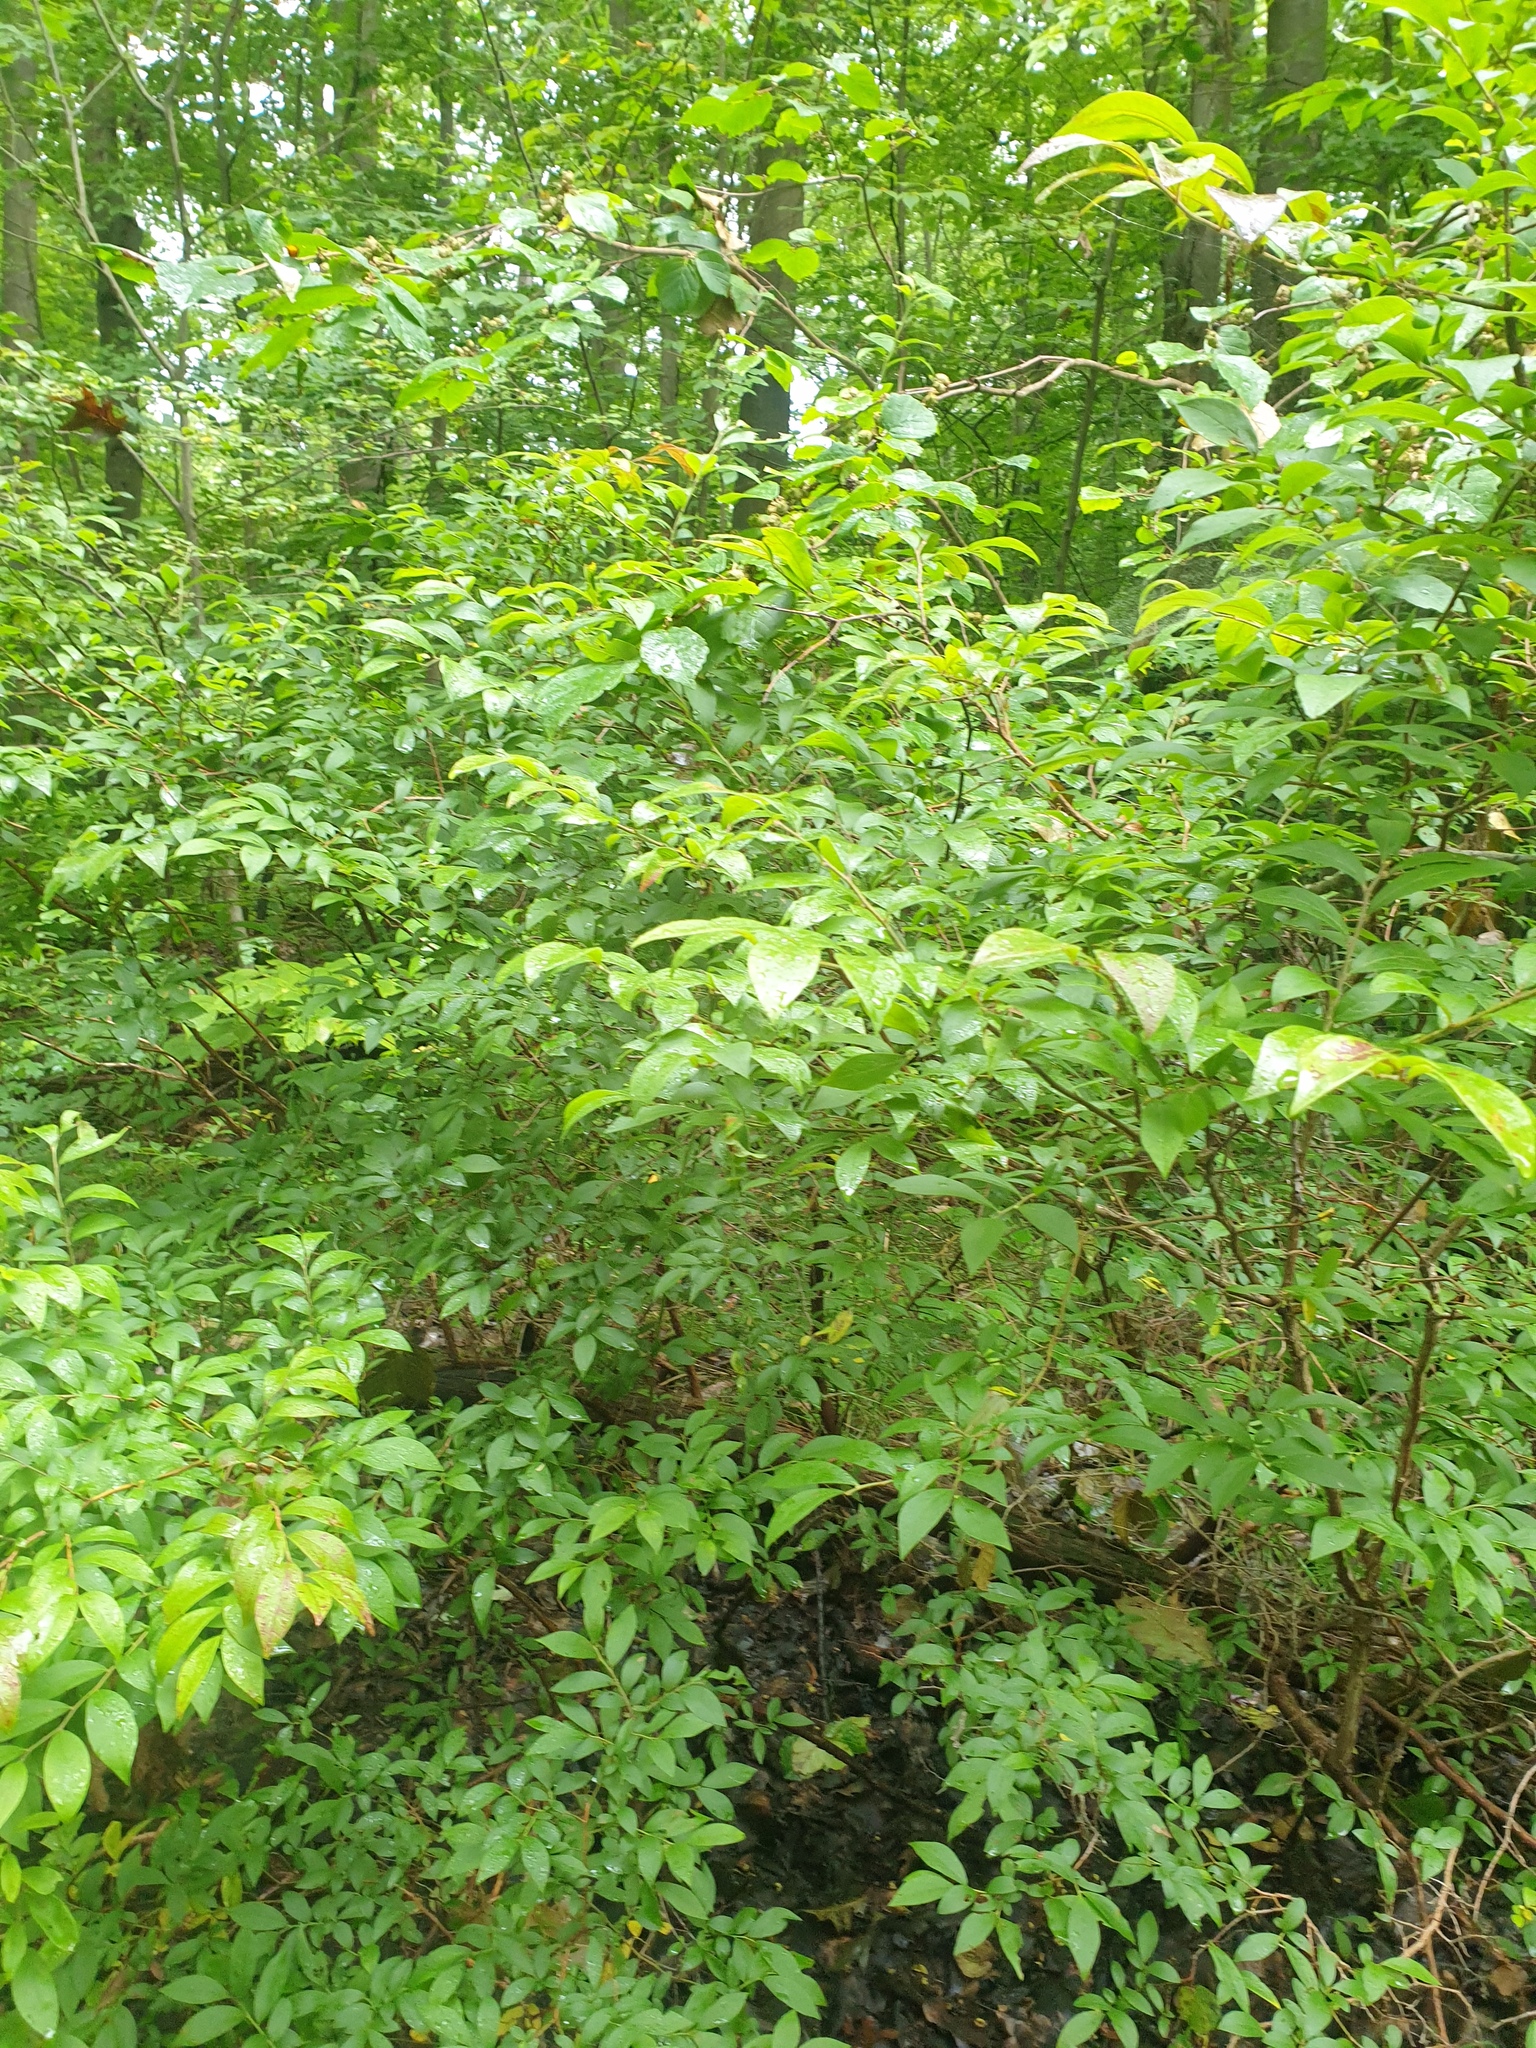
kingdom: Plantae
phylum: Tracheophyta
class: Magnoliopsida
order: Ericales
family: Ericaceae
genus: Vaccinium
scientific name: Vaccinium corymbosum
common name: Blueberry
